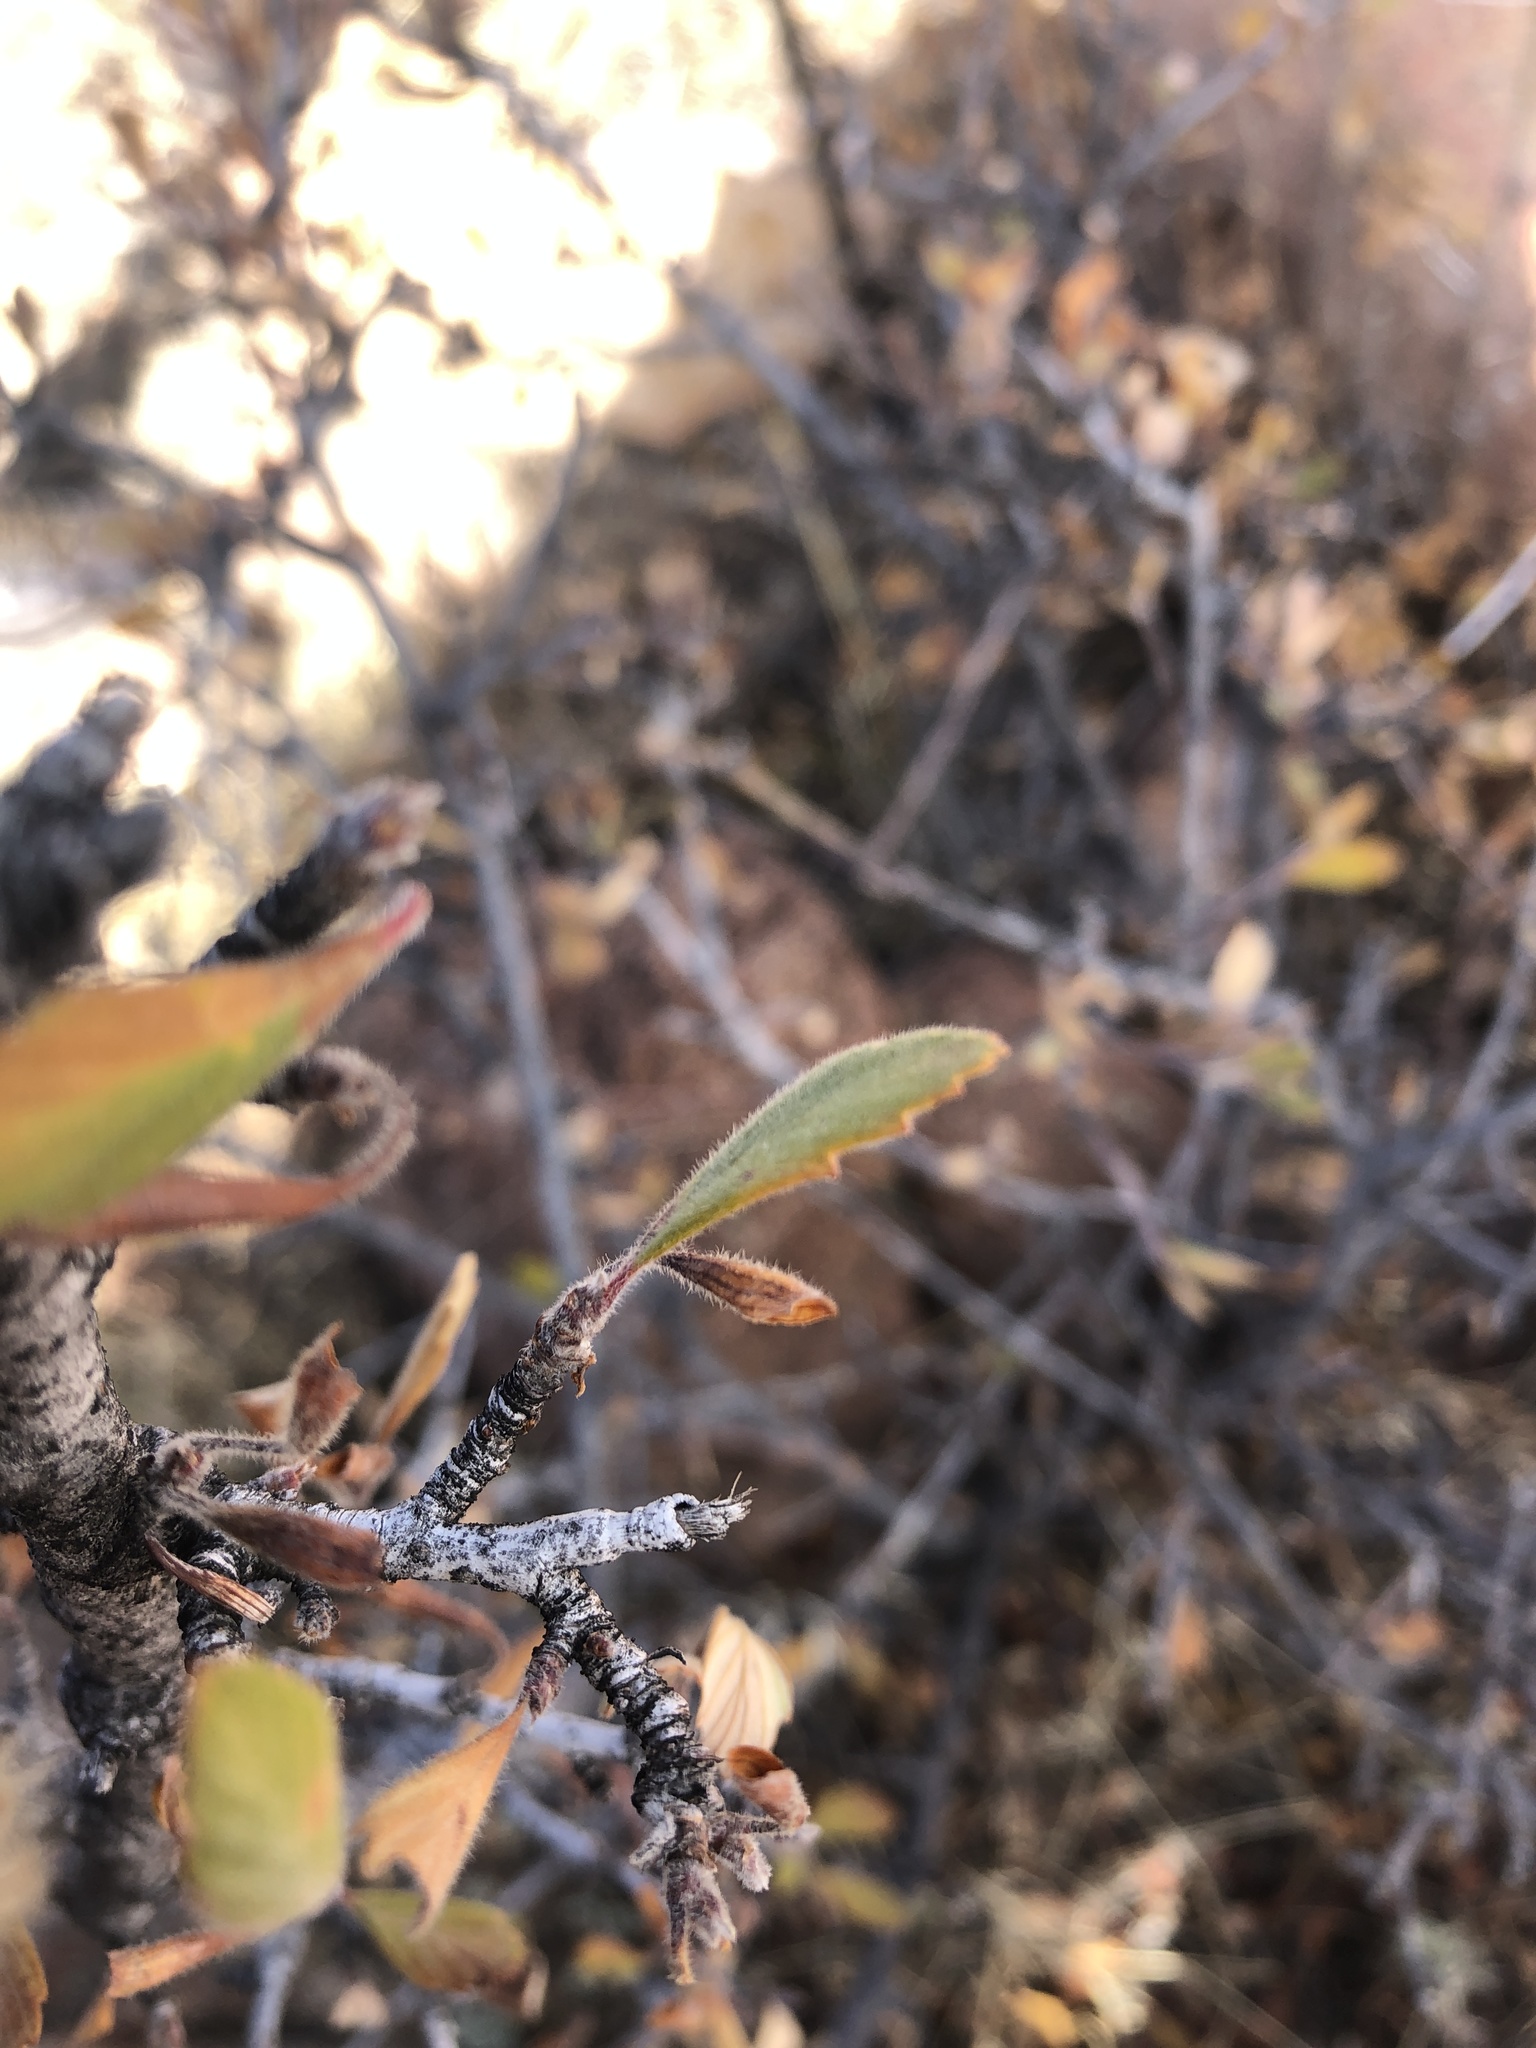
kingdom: Plantae
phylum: Tracheophyta
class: Magnoliopsida
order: Rosales
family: Rosaceae
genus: Cercocarpus
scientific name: Cercocarpus montanus
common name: Alder-leaf cercocarpus
